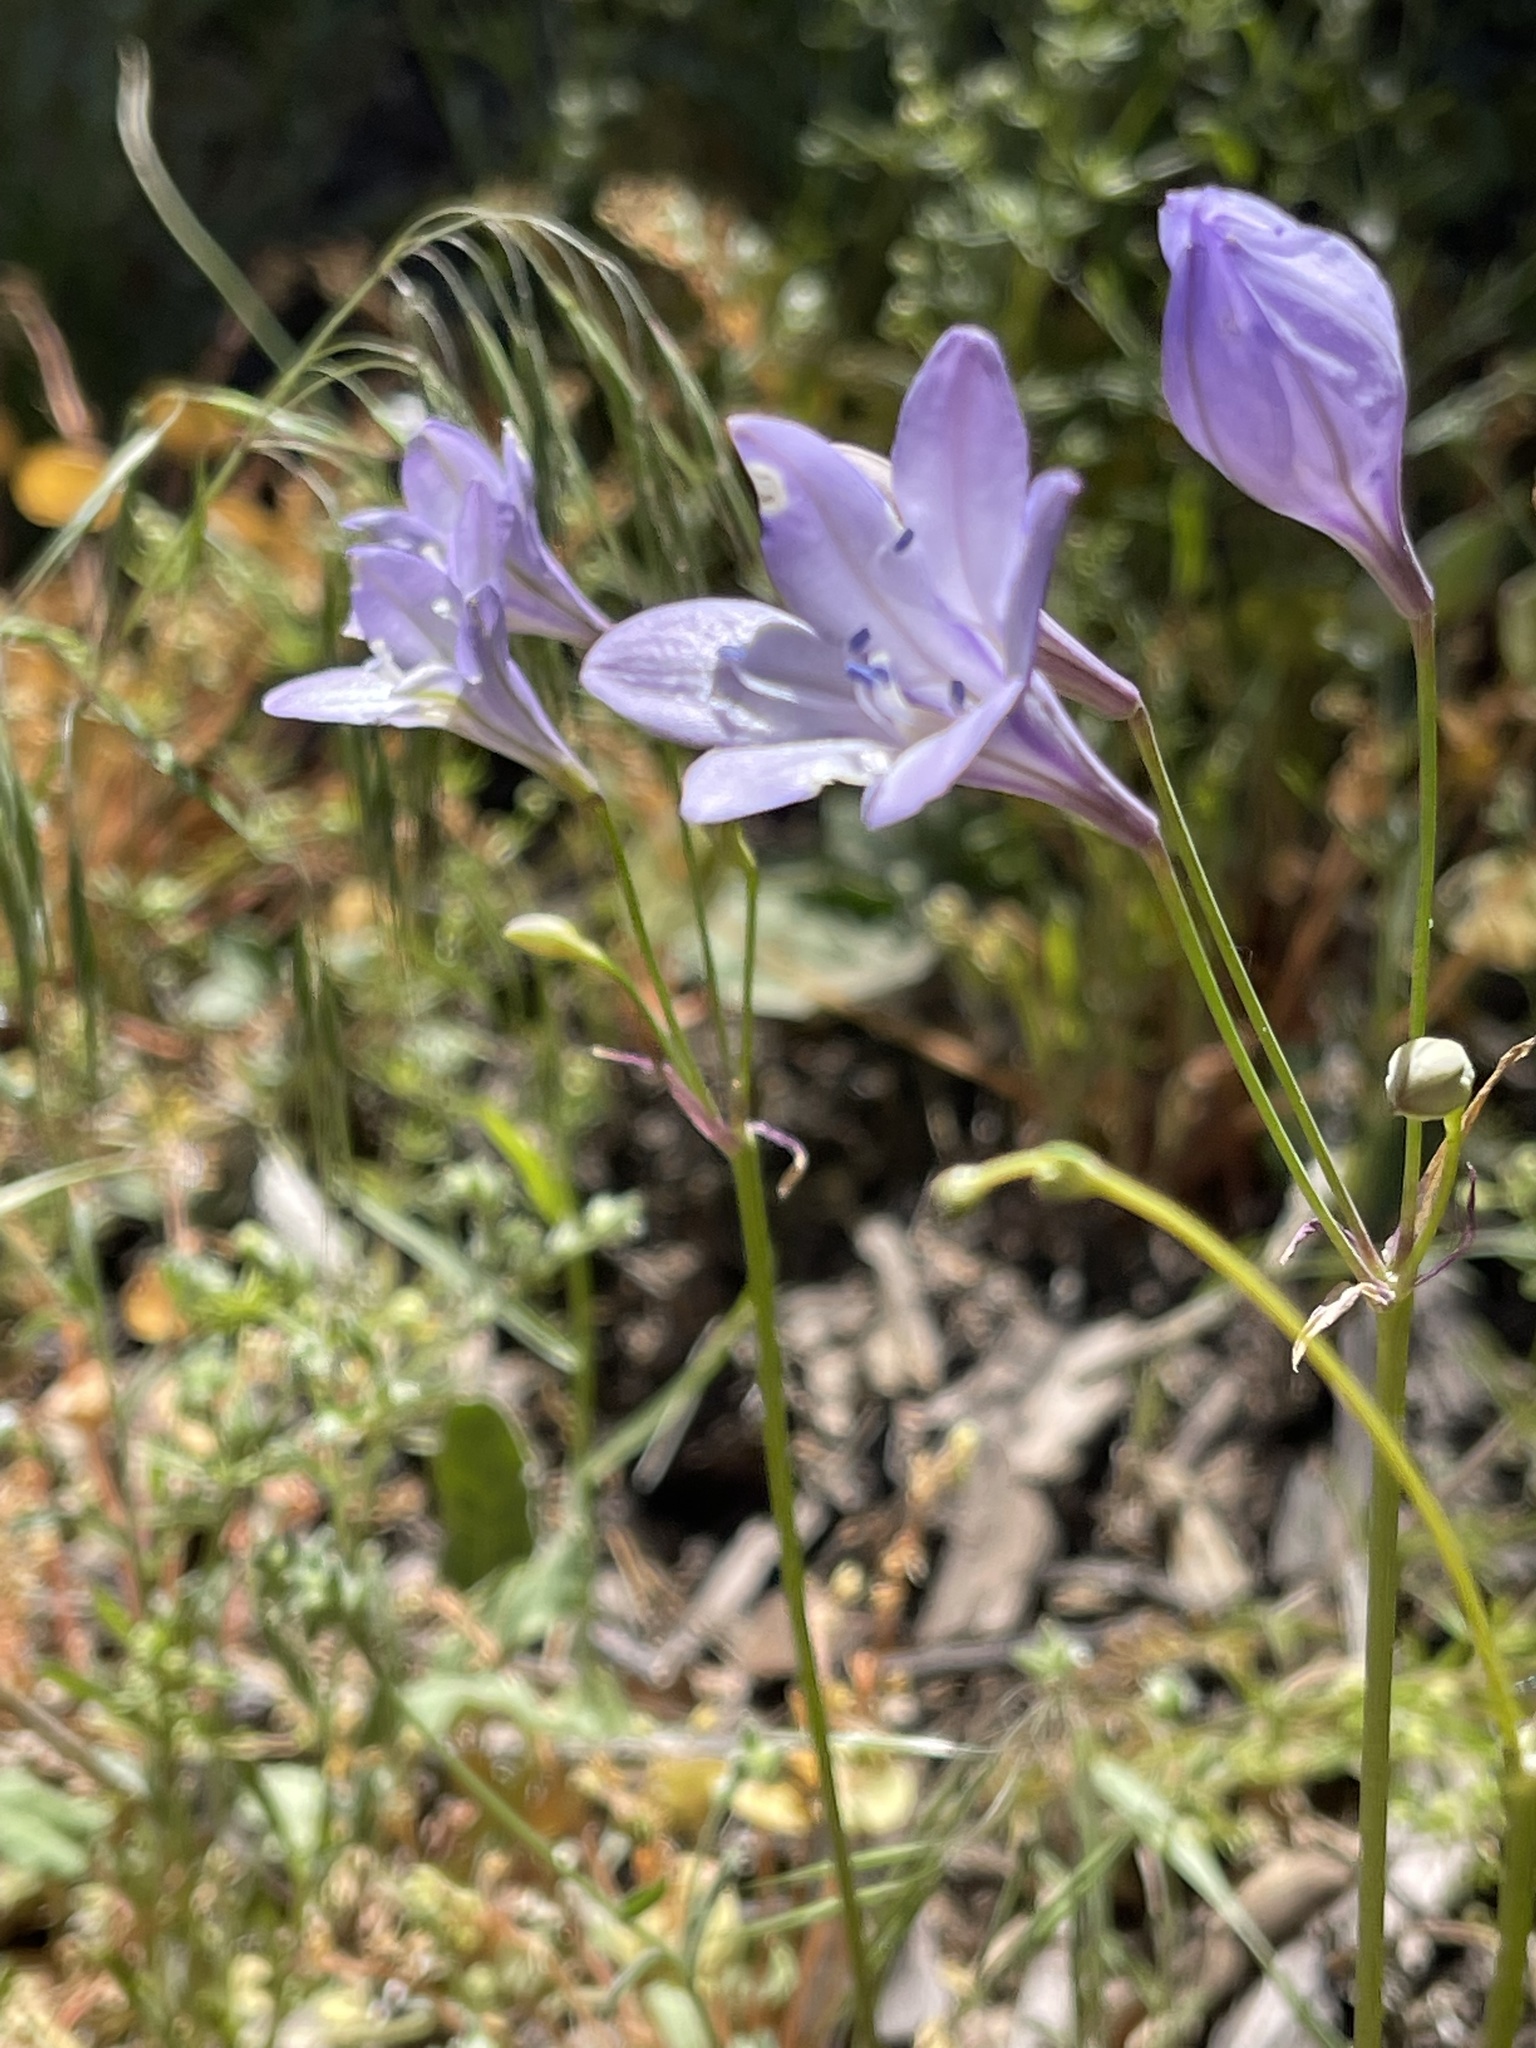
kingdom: Plantae
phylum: Tracheophyta
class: Liliopsida
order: Asparagales
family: Asparagaceae
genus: Triteleia
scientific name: Triteleia laxa
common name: Triplet-lily
